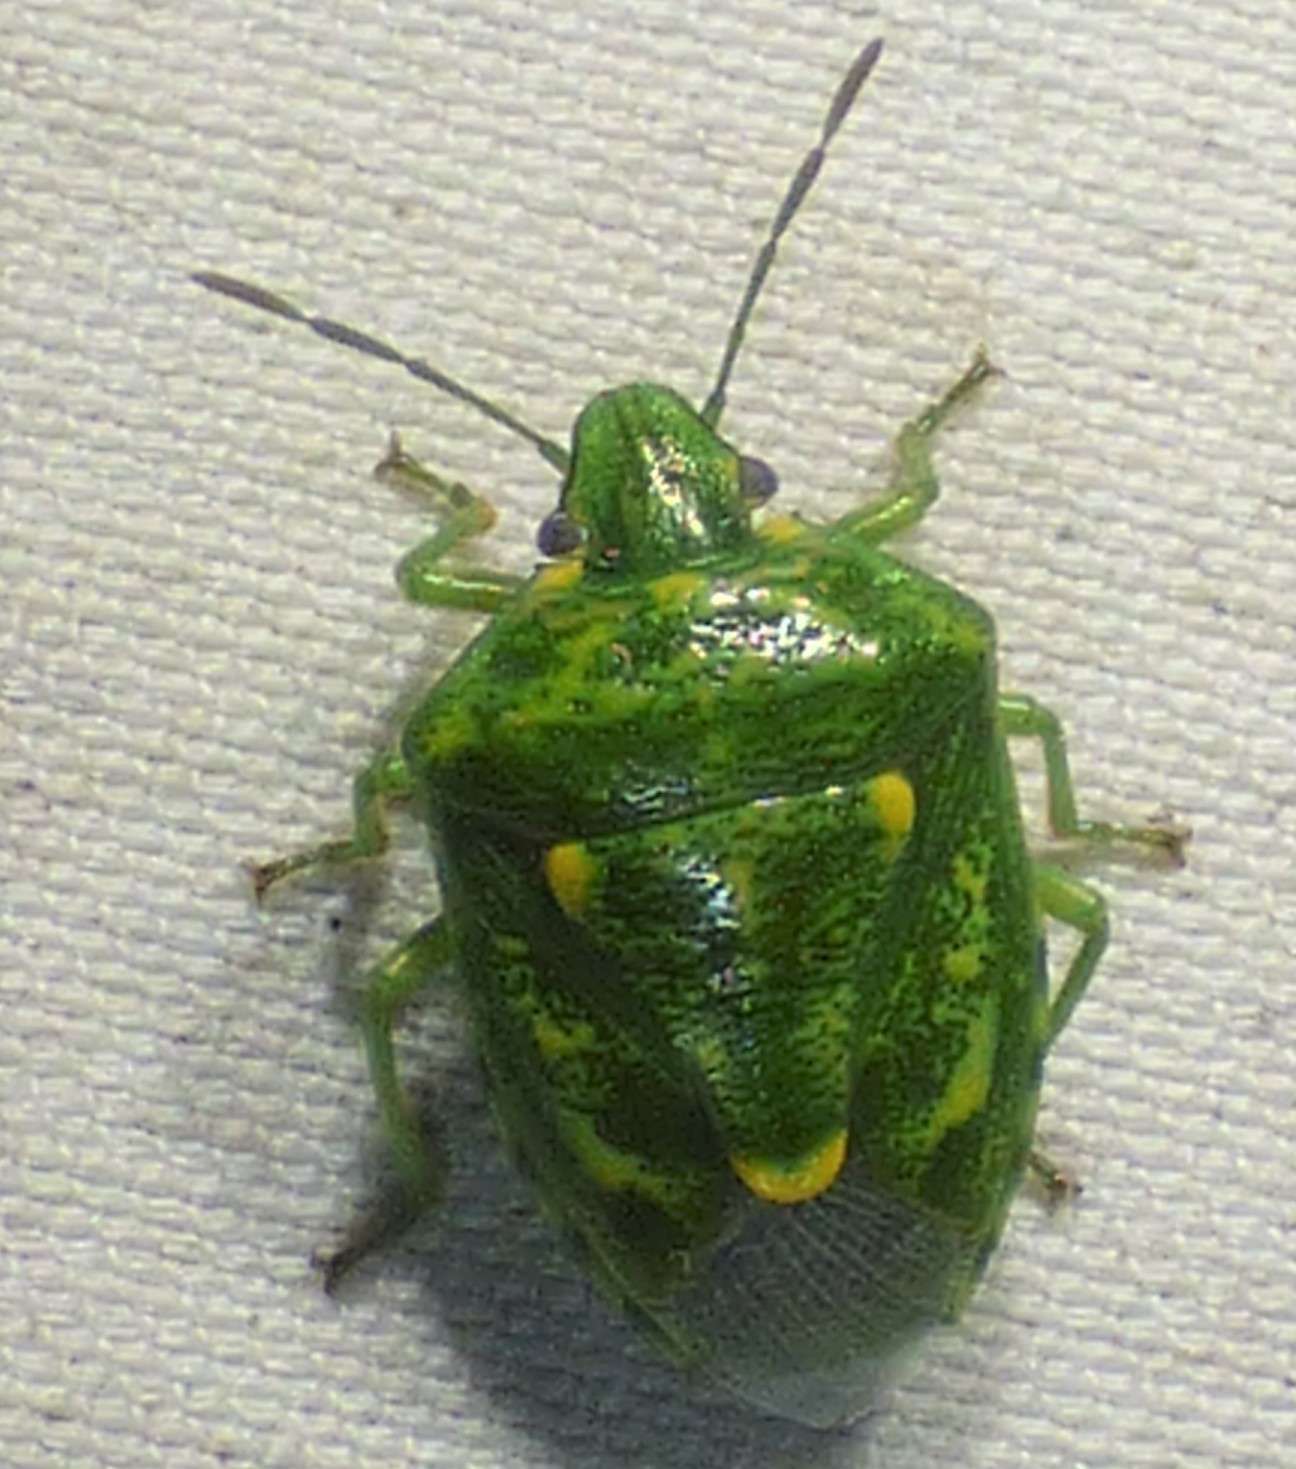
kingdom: Animalia
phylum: Arthropoda
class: Insecta
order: Hemiptera
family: Pentatomidae
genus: Banasa
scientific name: Banasa euchlora
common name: Cedar berry bug
